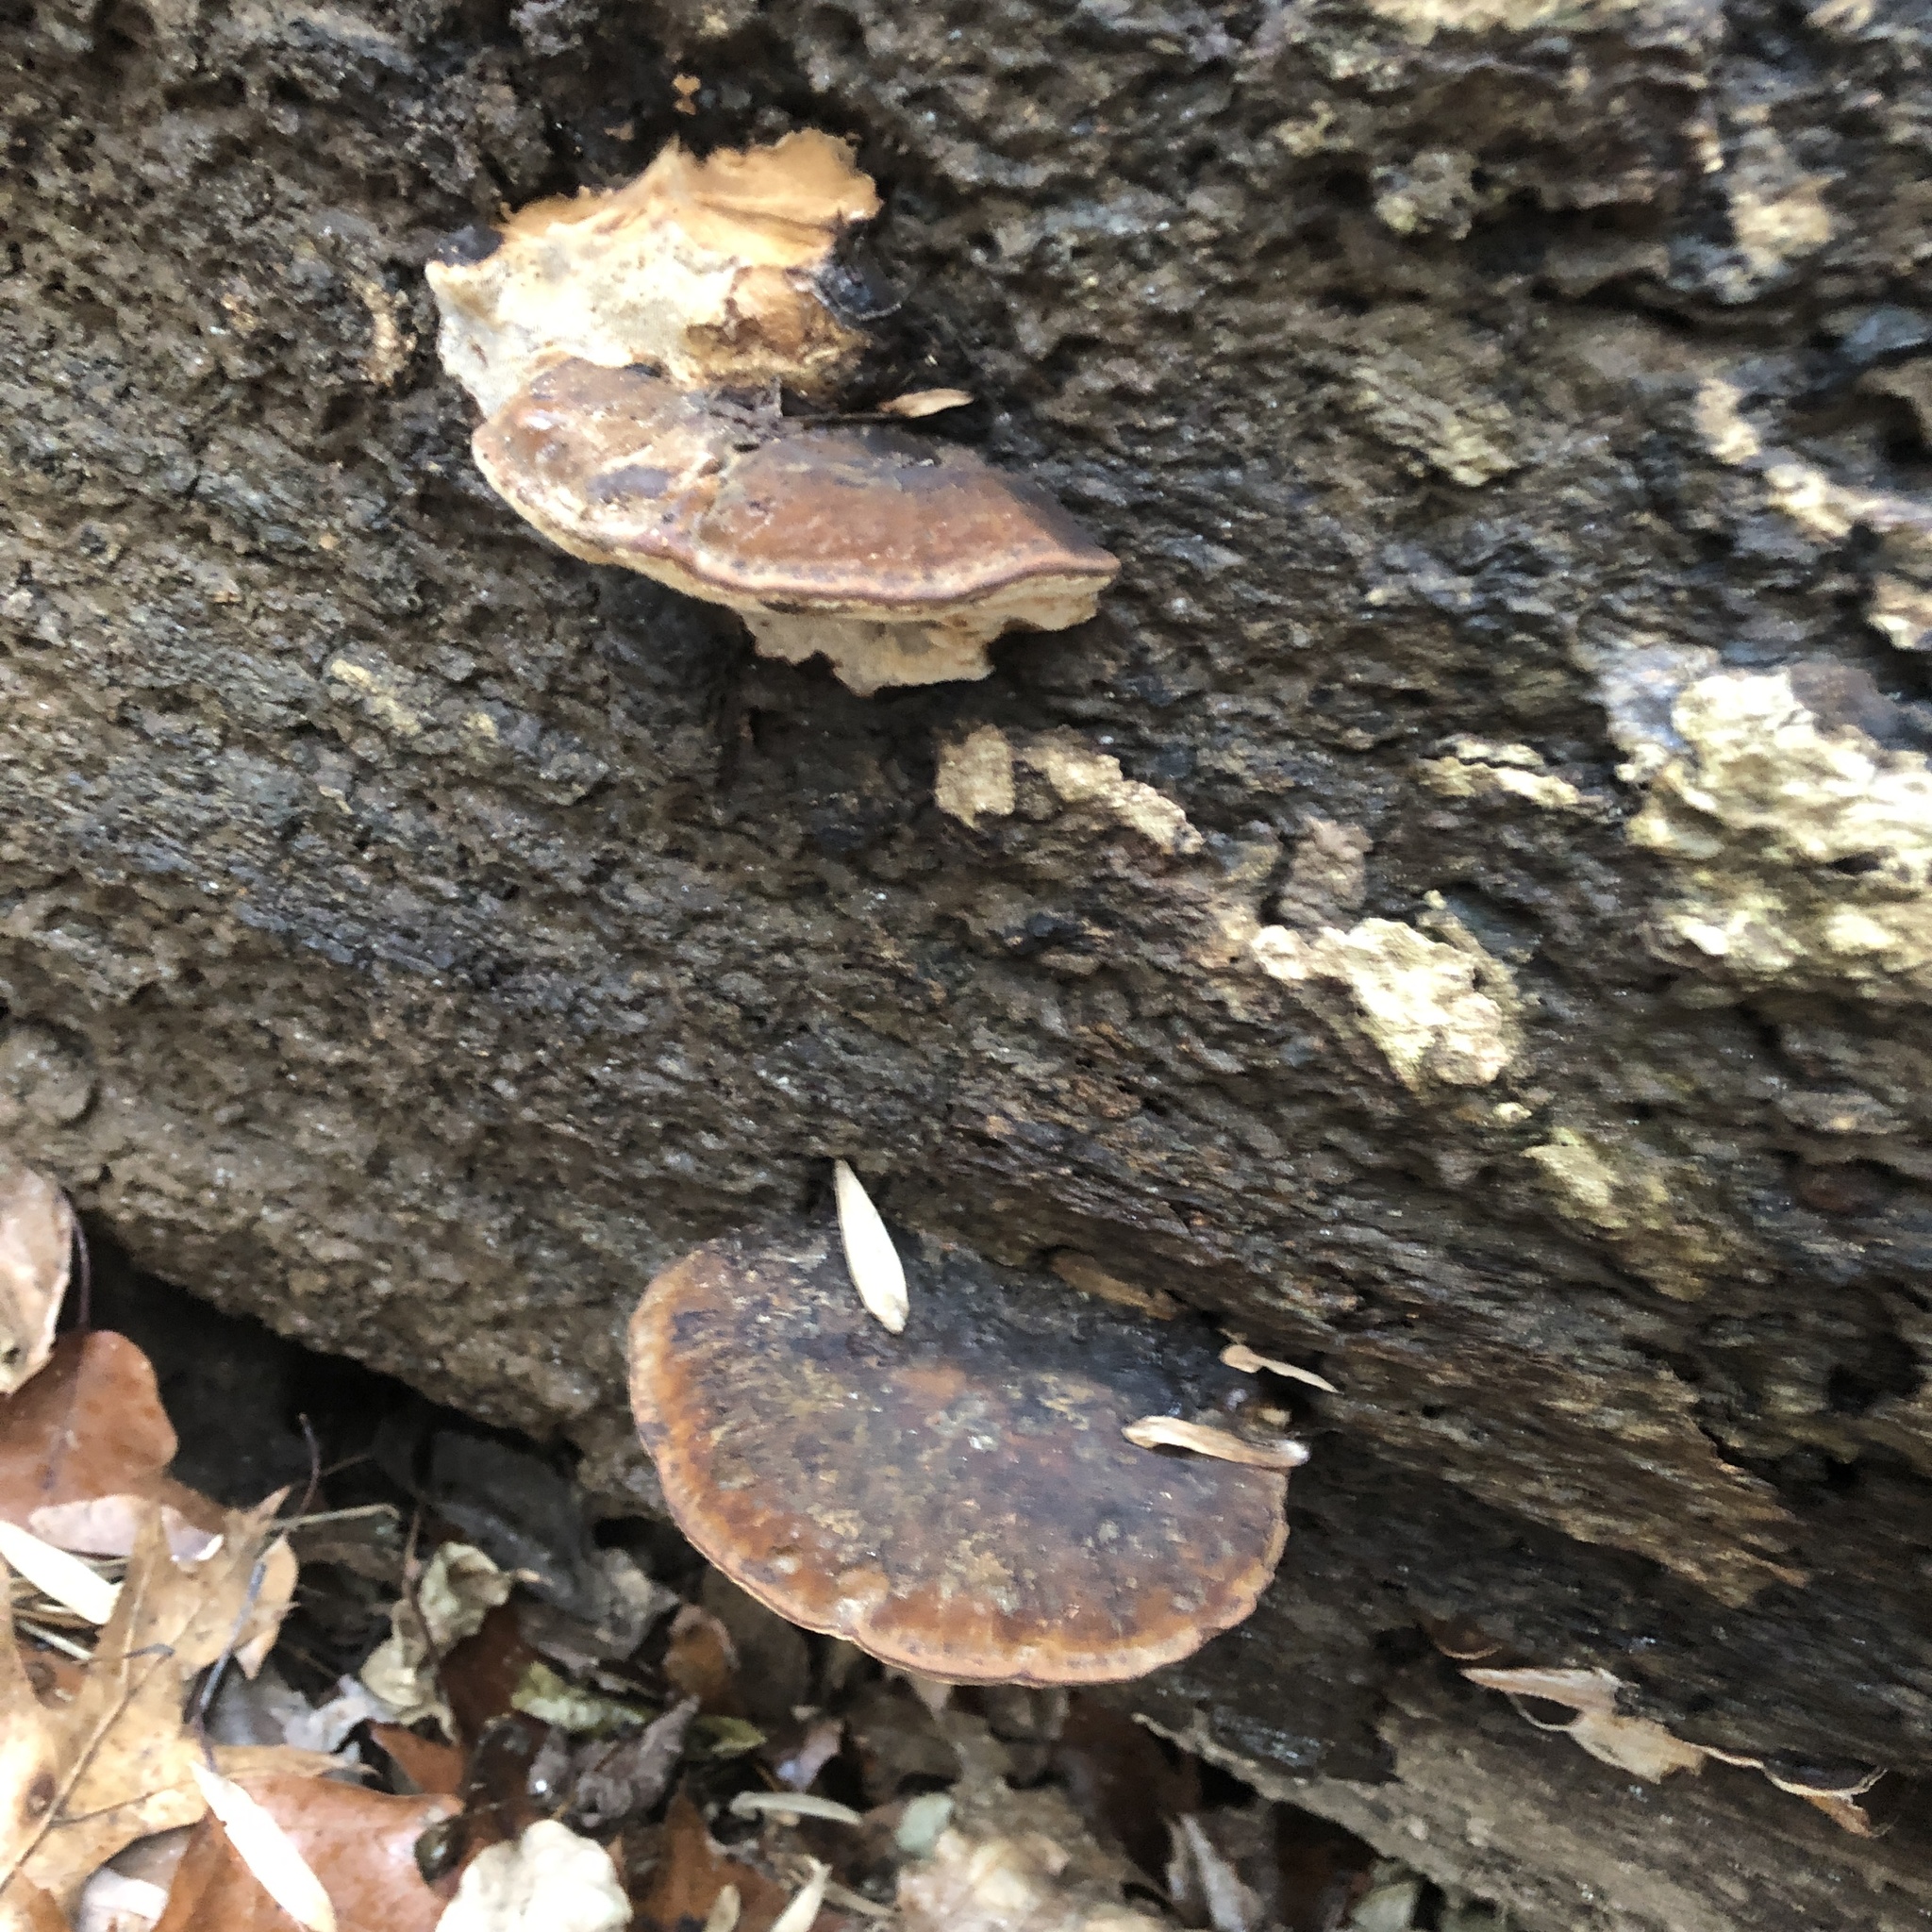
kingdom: Fungi
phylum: Basidiomycota
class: Agaricomycetes
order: Polyporales
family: Ischnodermataceae
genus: Ischnoderma
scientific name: Ischnoderma resinosum
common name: Resinous polypore
